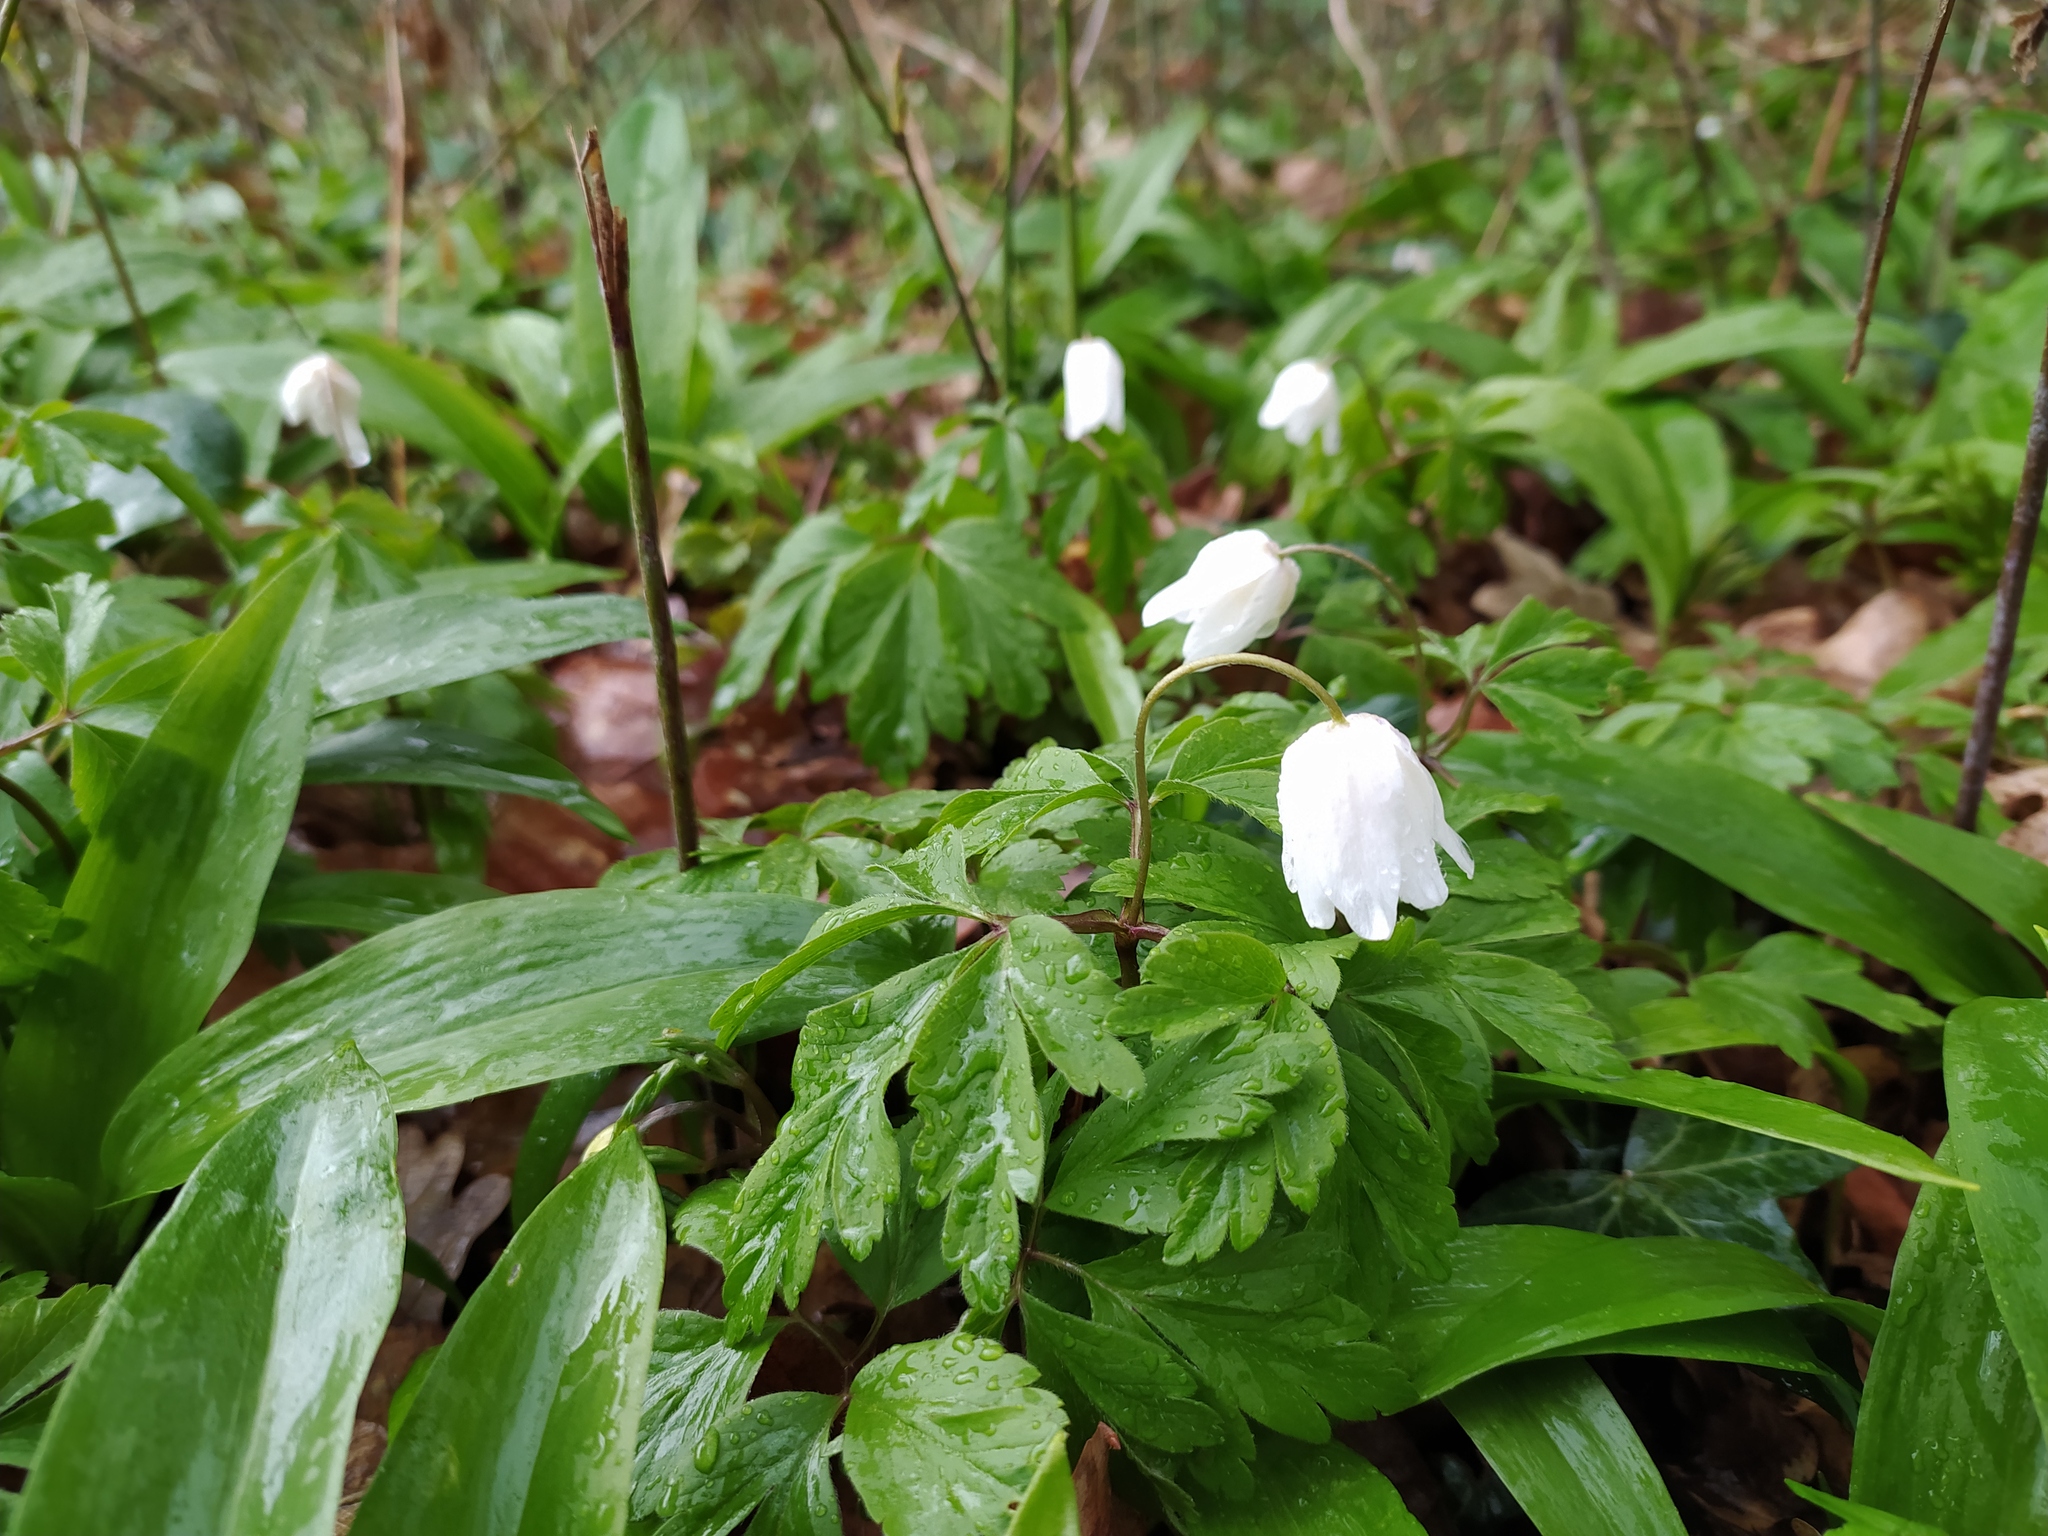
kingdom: Plantae
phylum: Tracheophyta
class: Magnoliopsida
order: Ranunculales
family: Ranunculaceae
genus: Anemone
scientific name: Anemone nemorosa
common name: Wood anemone
